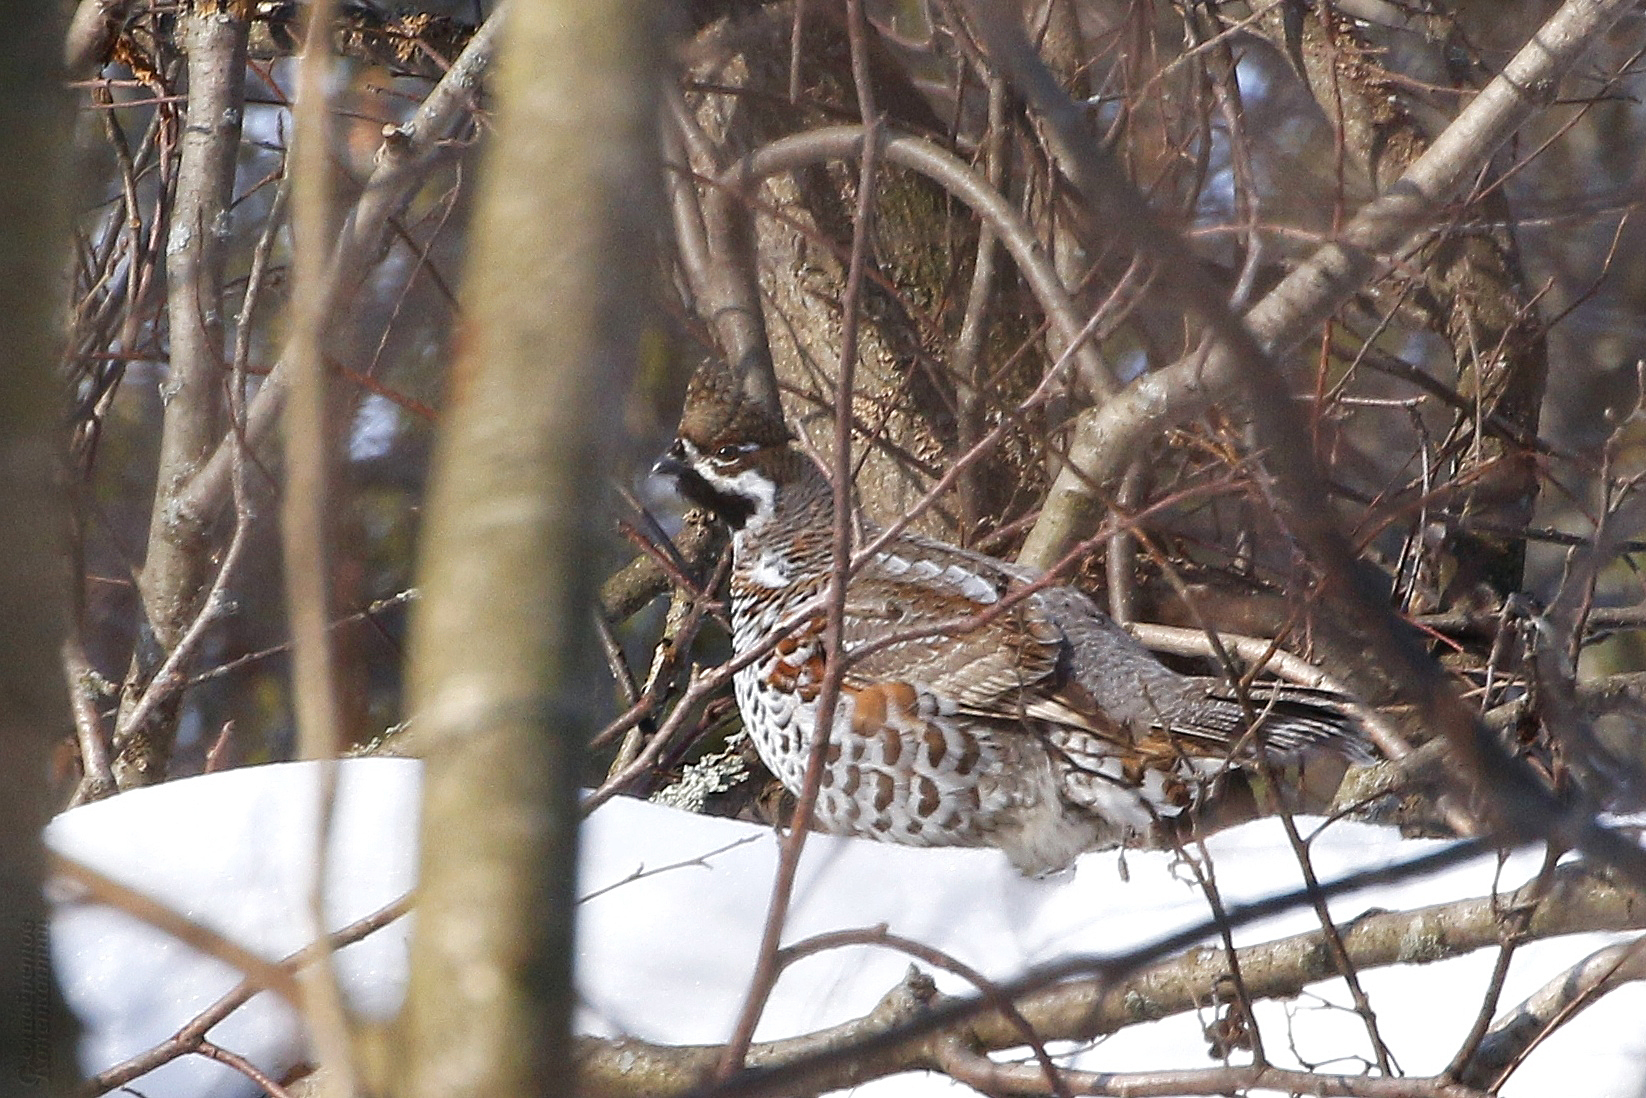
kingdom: Animalia
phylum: Chordata
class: Aves
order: Galliformes
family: Phasianidae
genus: Tetrastes
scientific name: Tetrastes bonasia
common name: Hazel grouse
